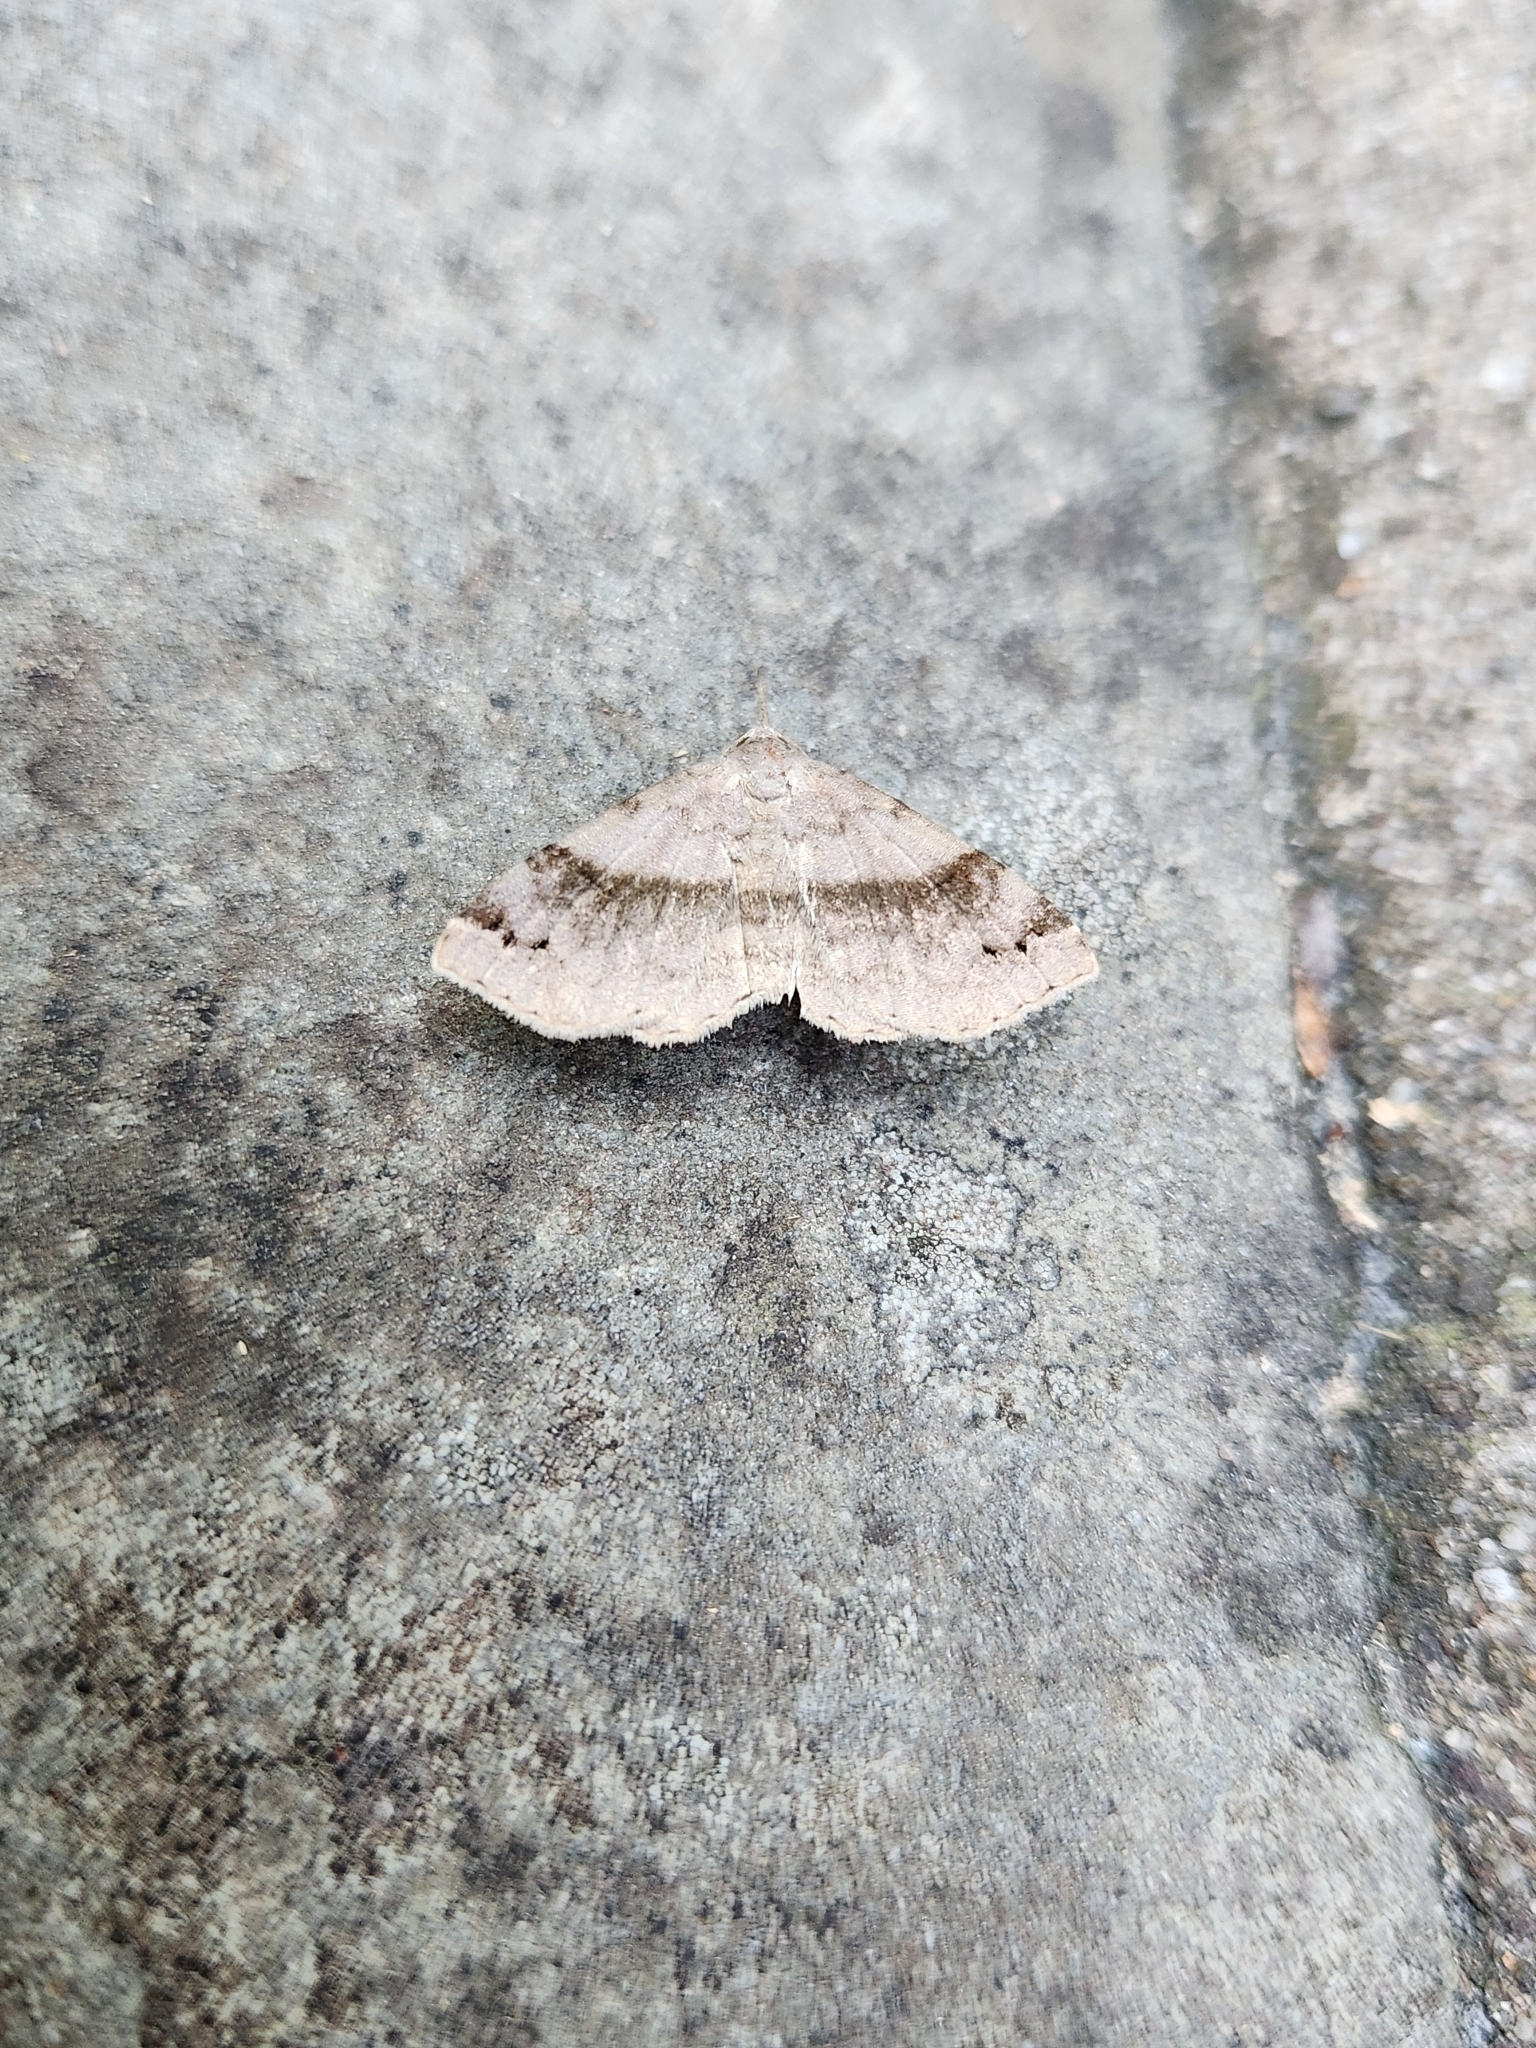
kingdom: Animalia
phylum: Arthropoda
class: Insecta
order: Lepidoptera
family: Erebidae
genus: Spargaloma
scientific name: Spargaloma sexpunctata
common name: Six-spotted gray
